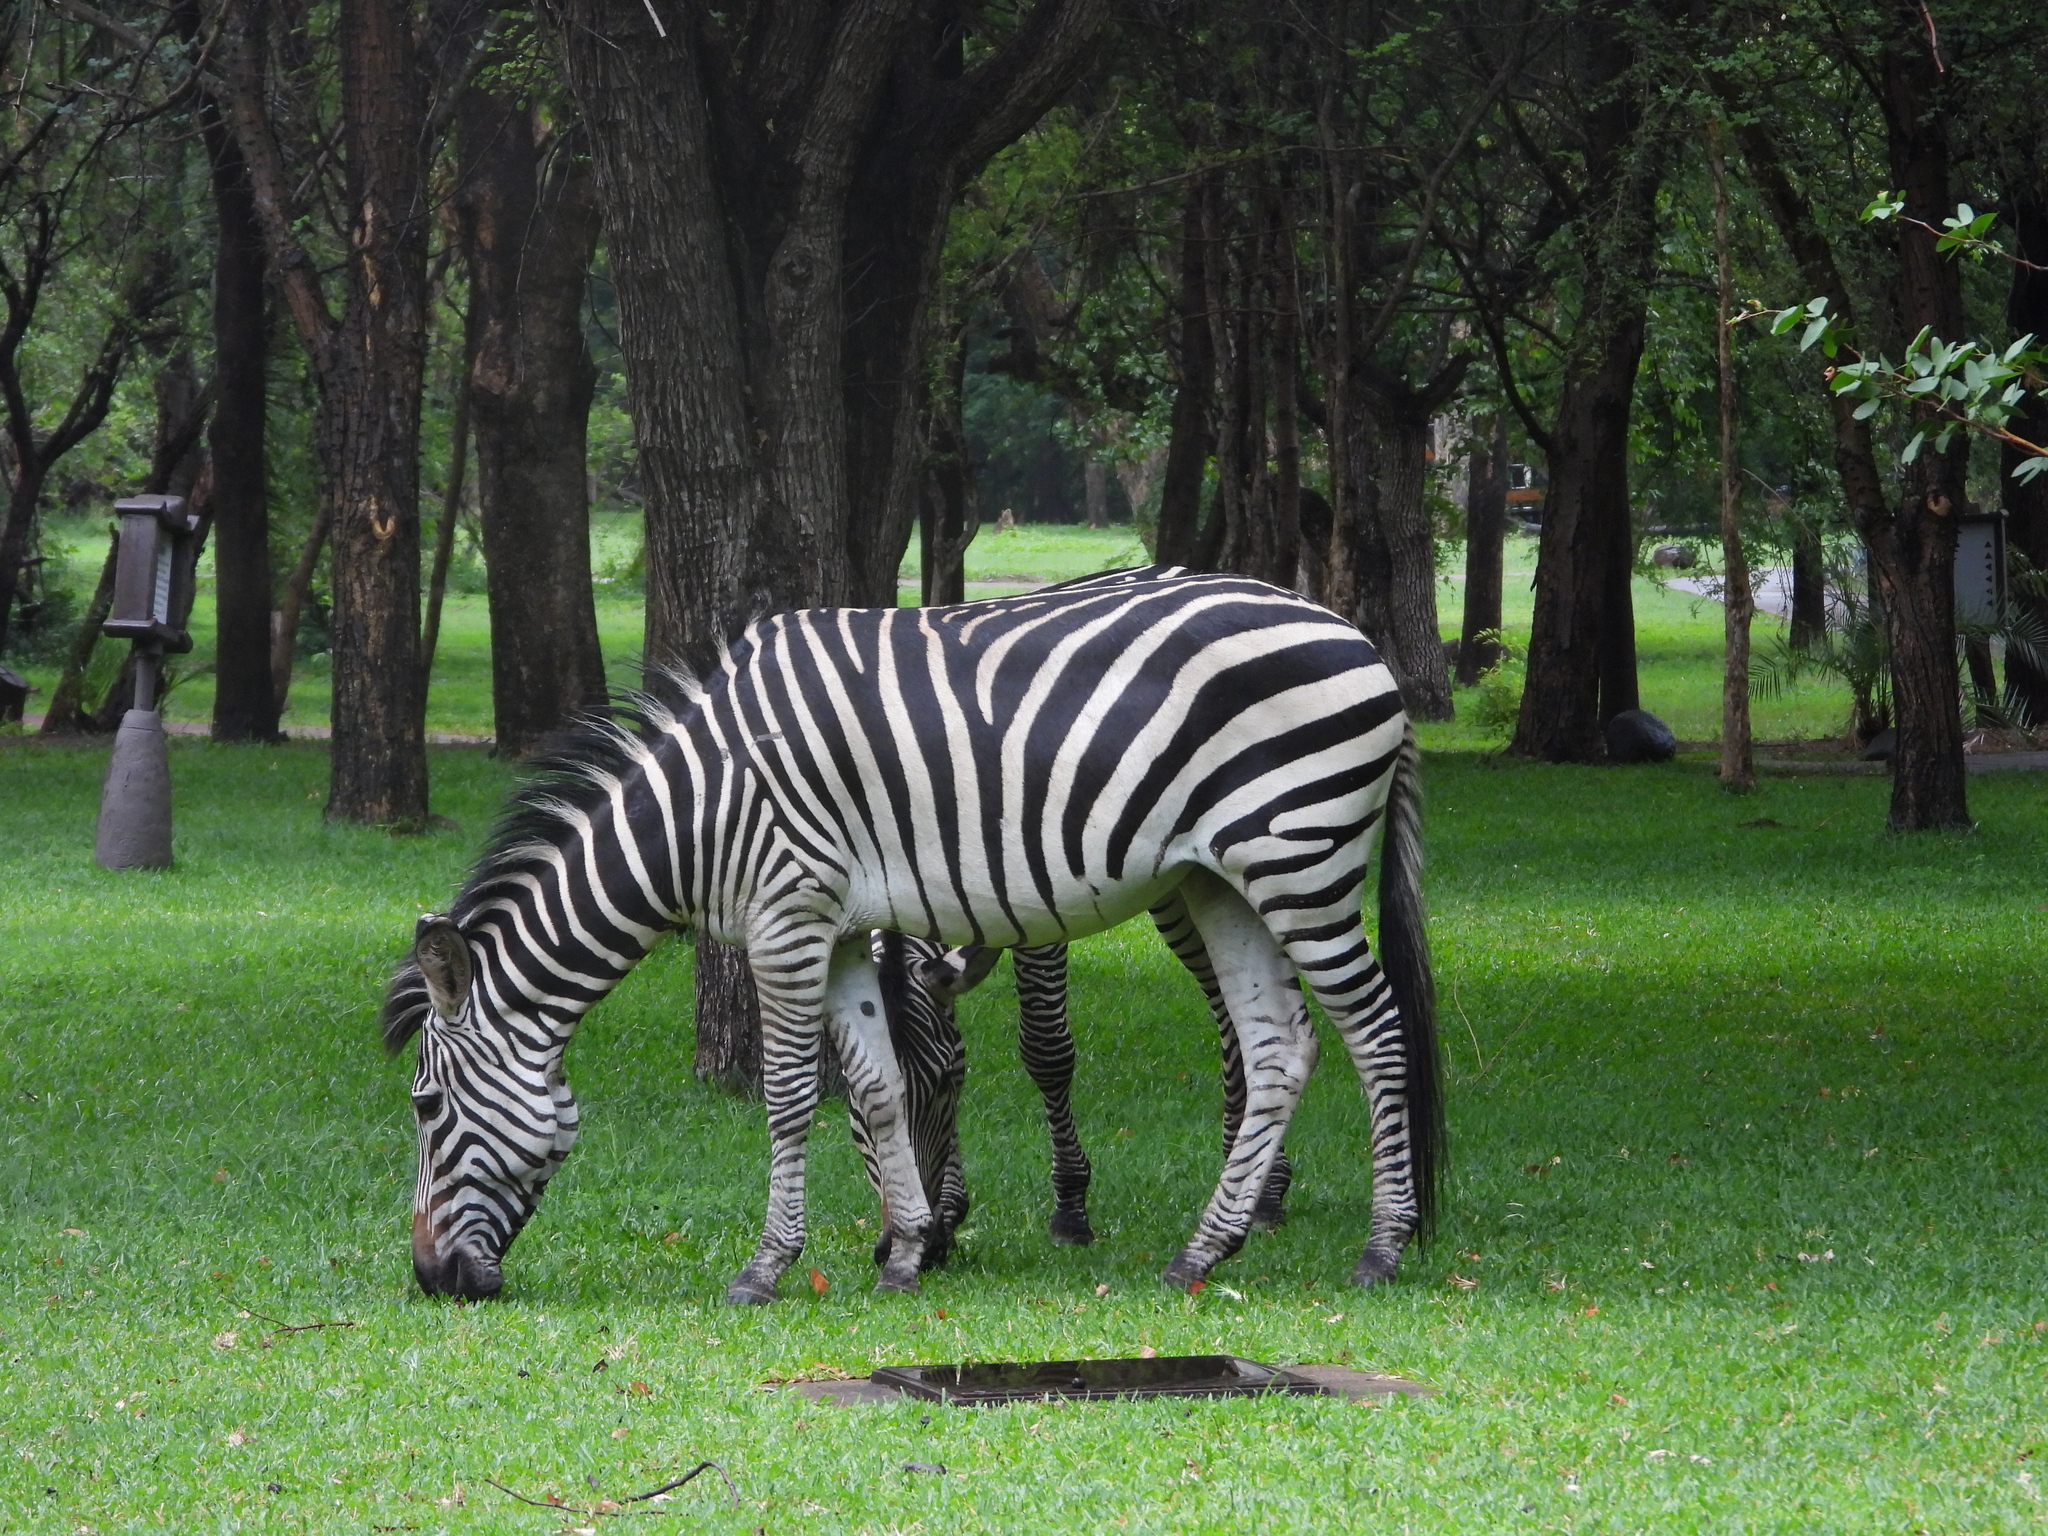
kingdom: Animalia
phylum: Chordata
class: Mammalia
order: Perissodactyla
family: Equidae
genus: Equus
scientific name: Equus quagga
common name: Plains zebra
